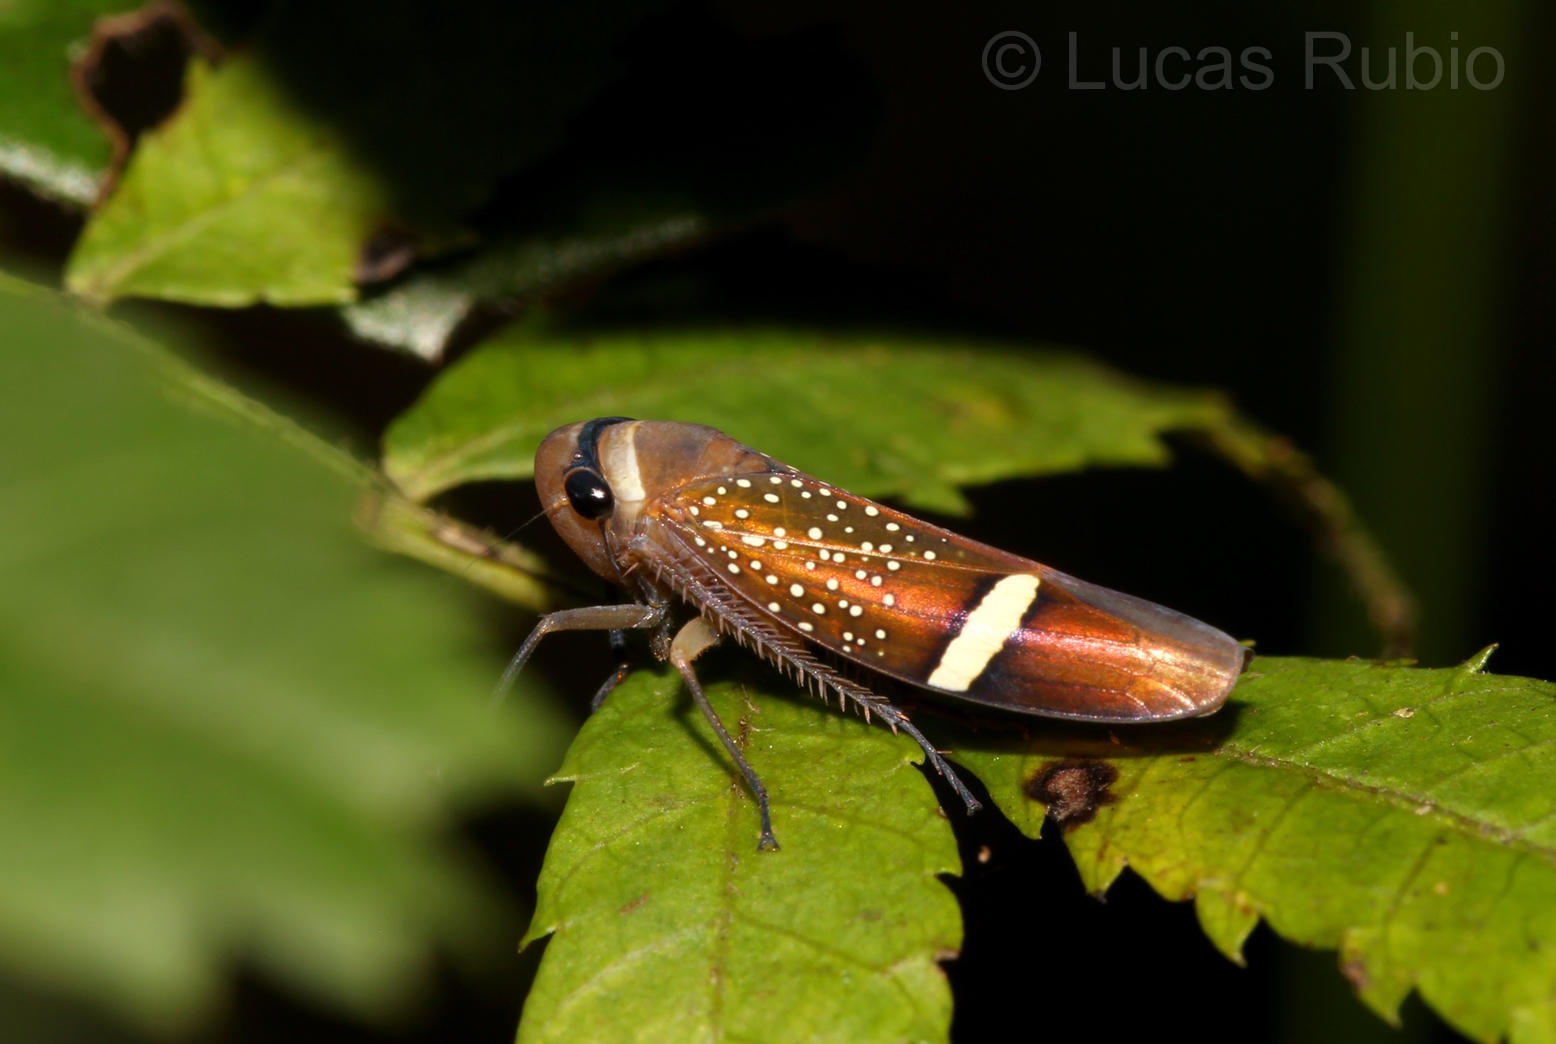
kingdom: Animalia
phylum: Arthropoda
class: Insecta
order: Hemiptera
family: Cicadellidae
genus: Scoposcartula
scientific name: Scoposcartula limitata
